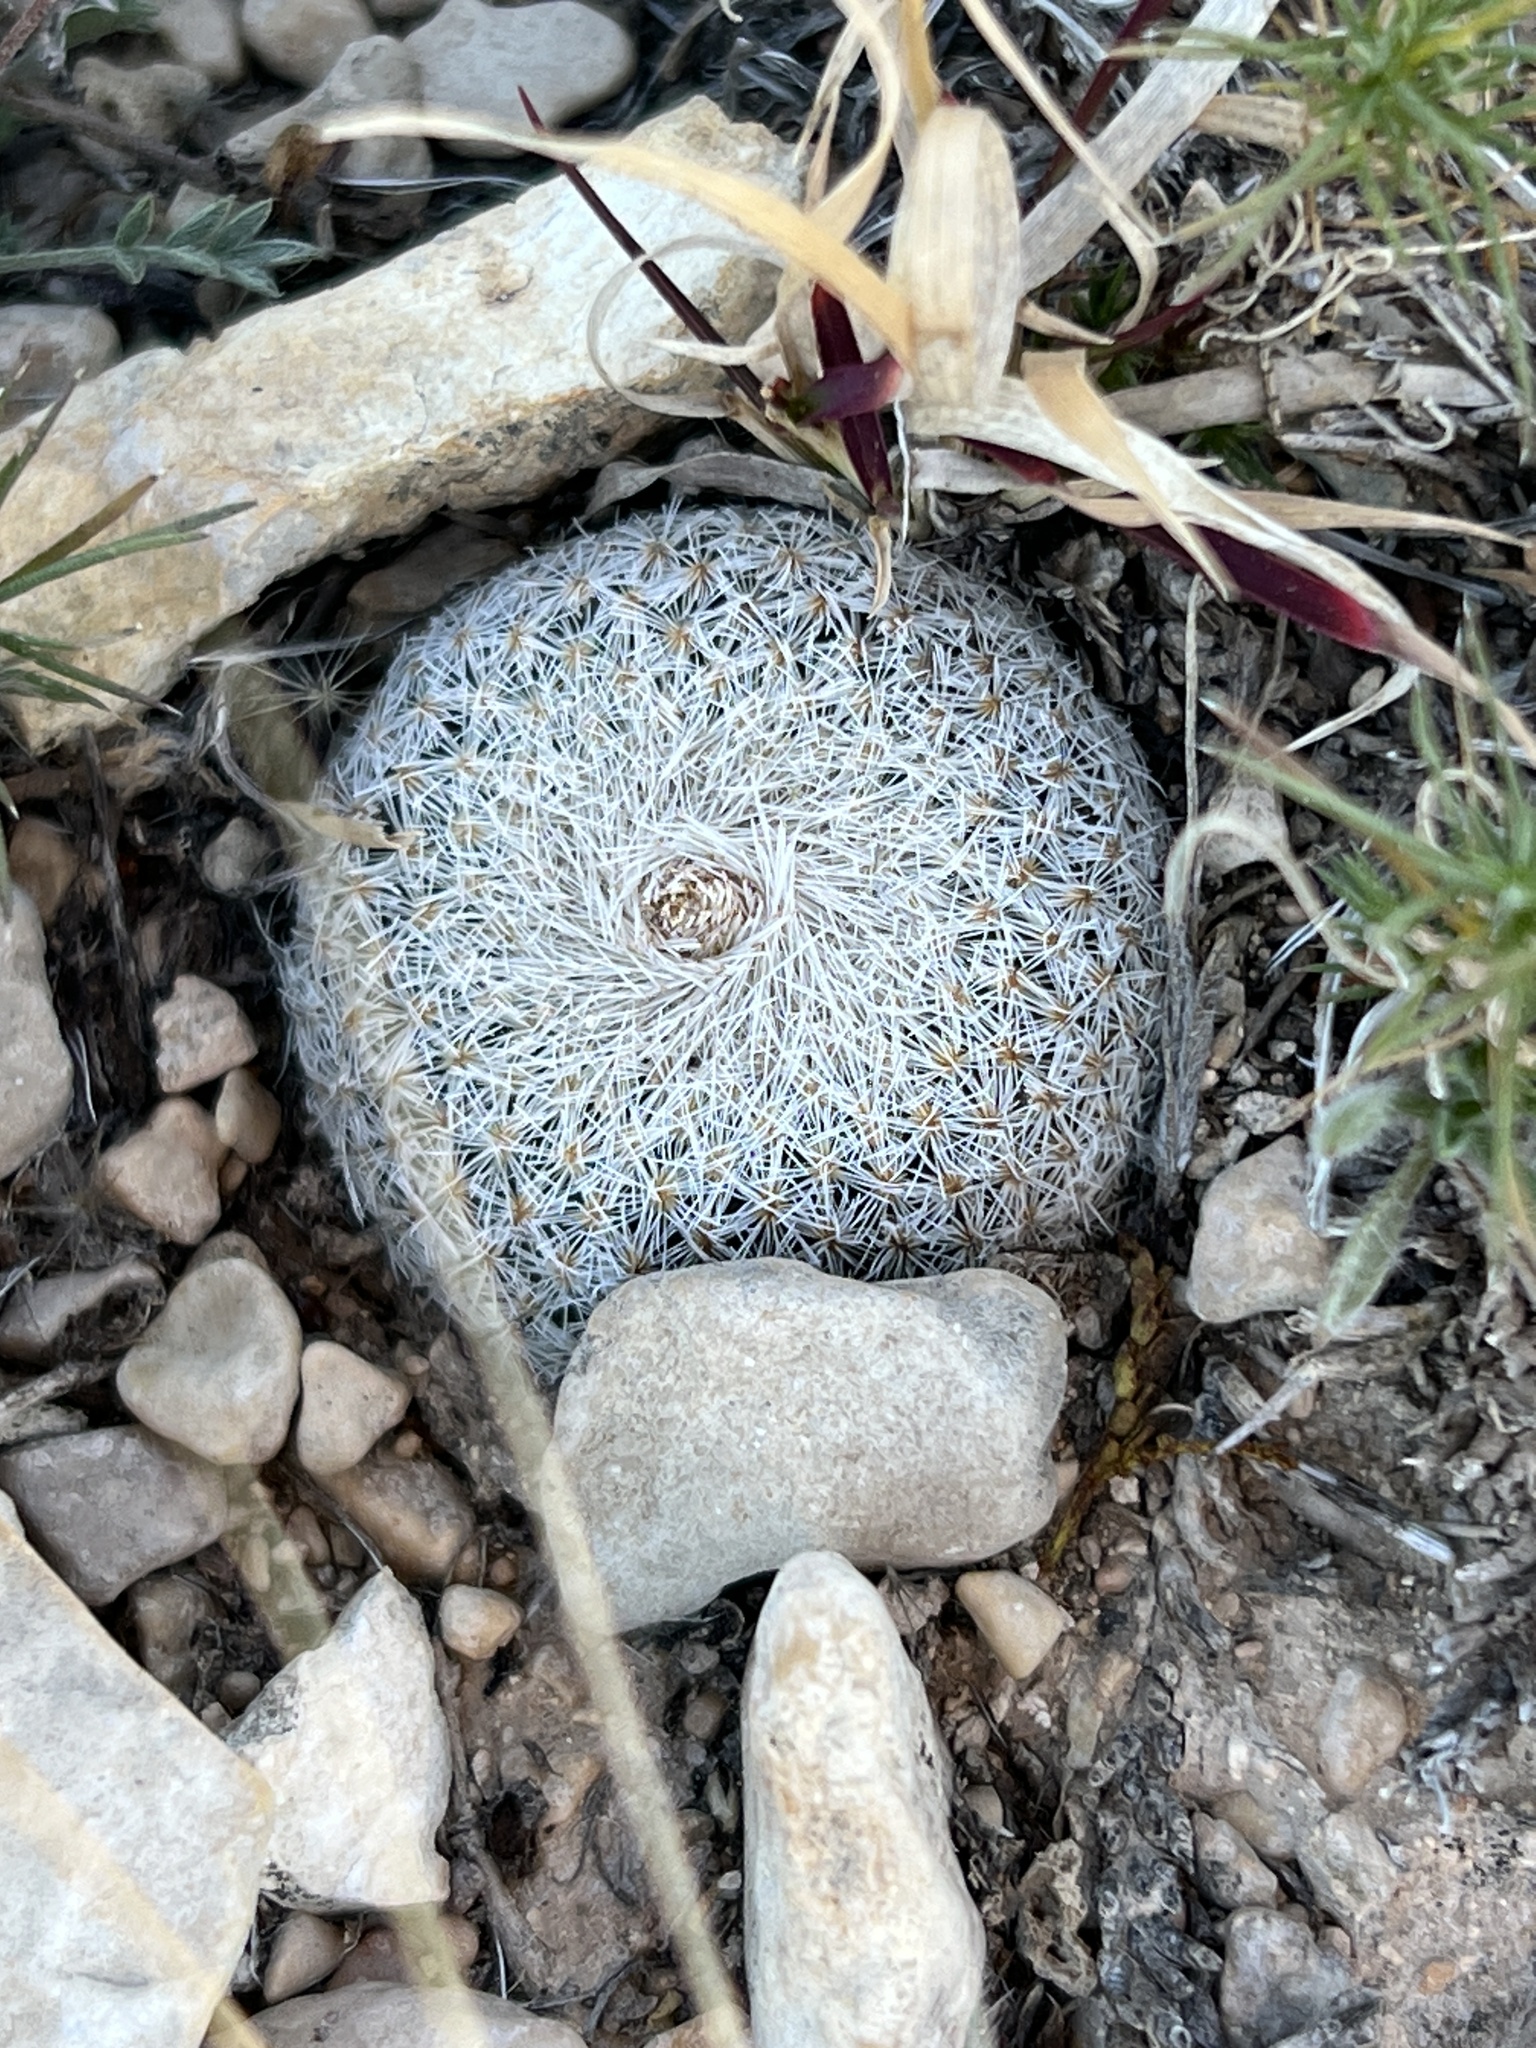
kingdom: Plantae
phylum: Tracheophyta
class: Magnoliopsida
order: Caryophyllales
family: Cactaceae
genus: Epithelantha
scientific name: Epithelantha micromeris
